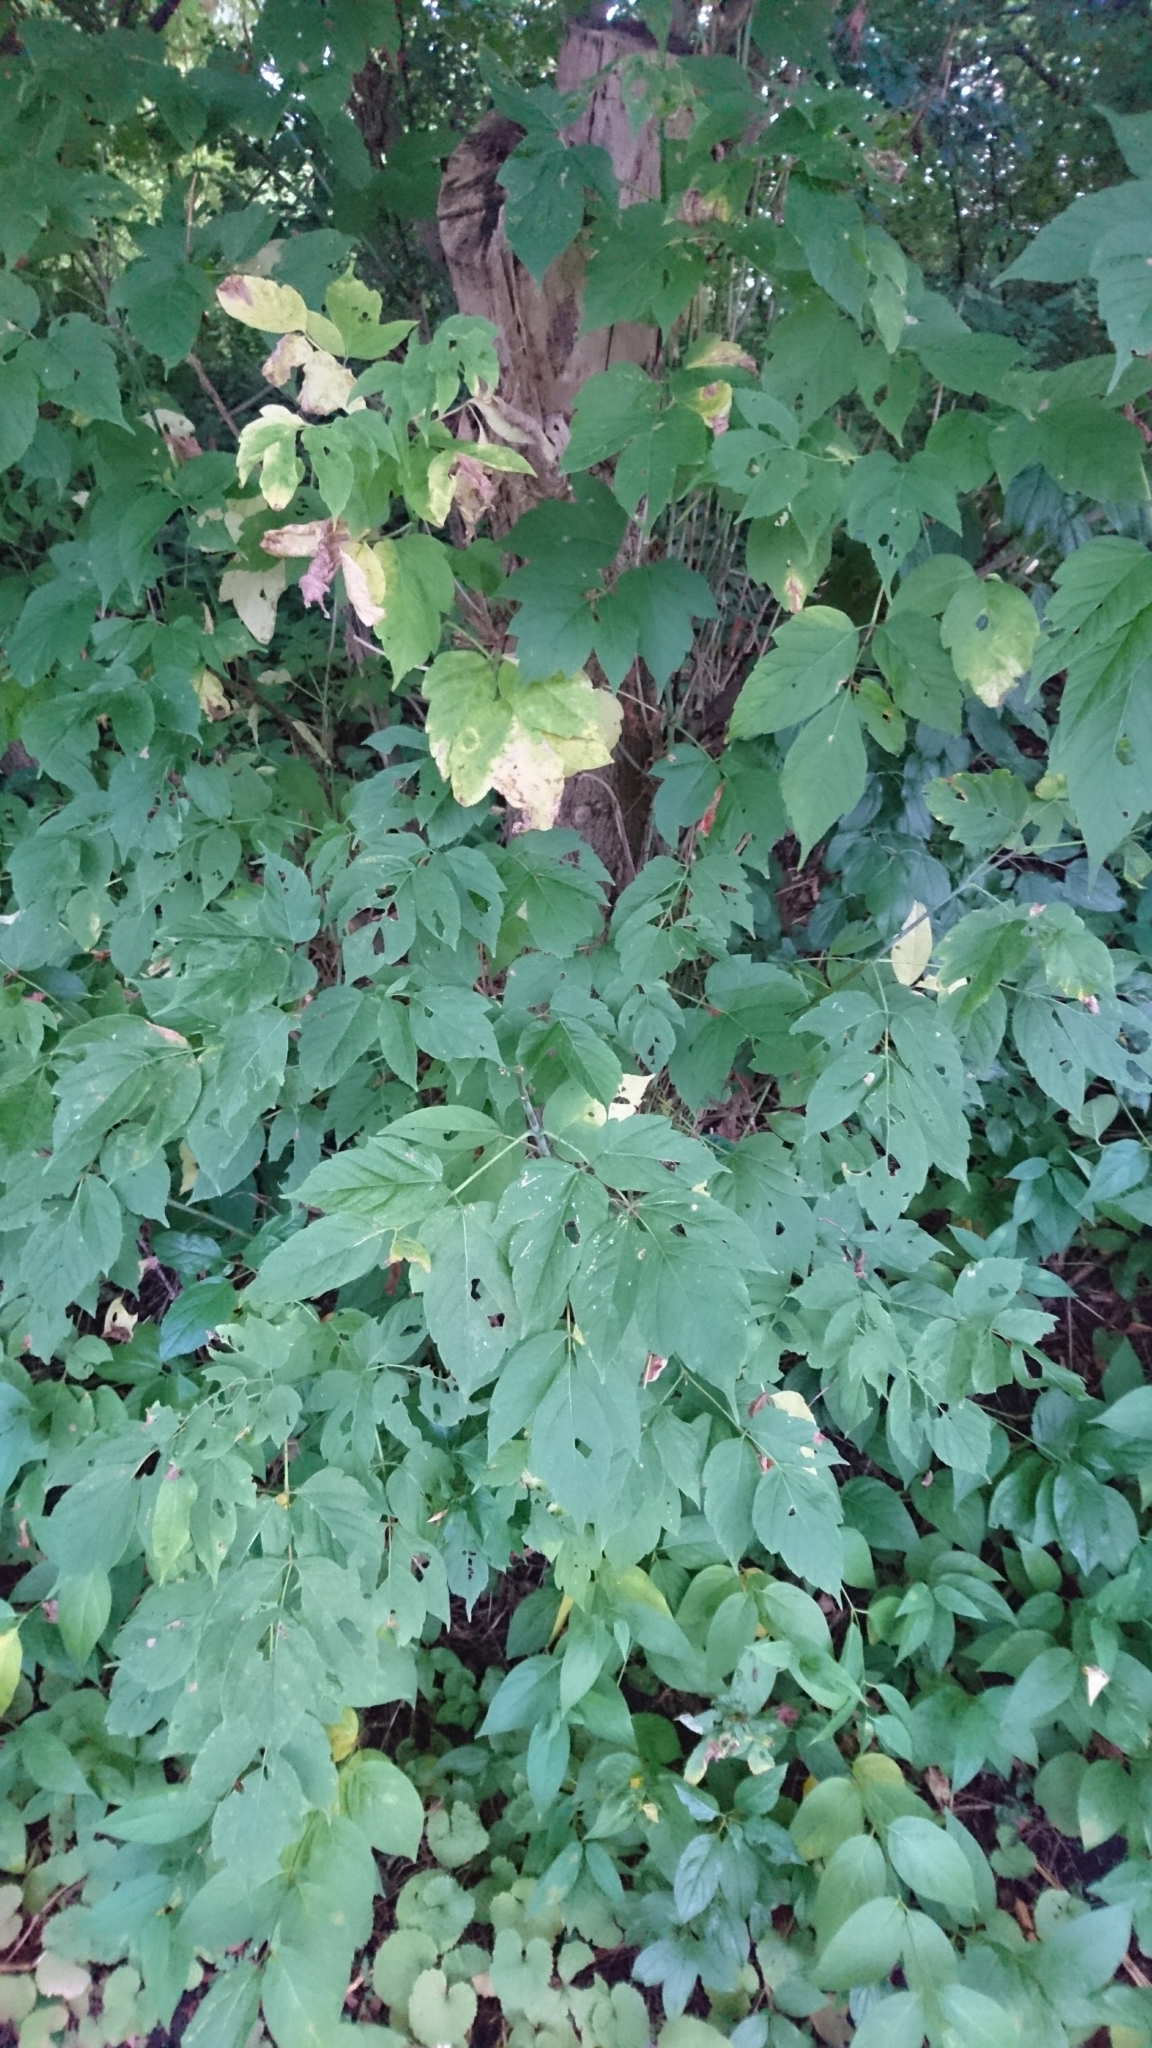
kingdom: Plantae
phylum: Tracheophyta
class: Magnoliopsida
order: Sapindales
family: Sapindaceae
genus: Acer
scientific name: Acer negundo
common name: Ashleaf maple
